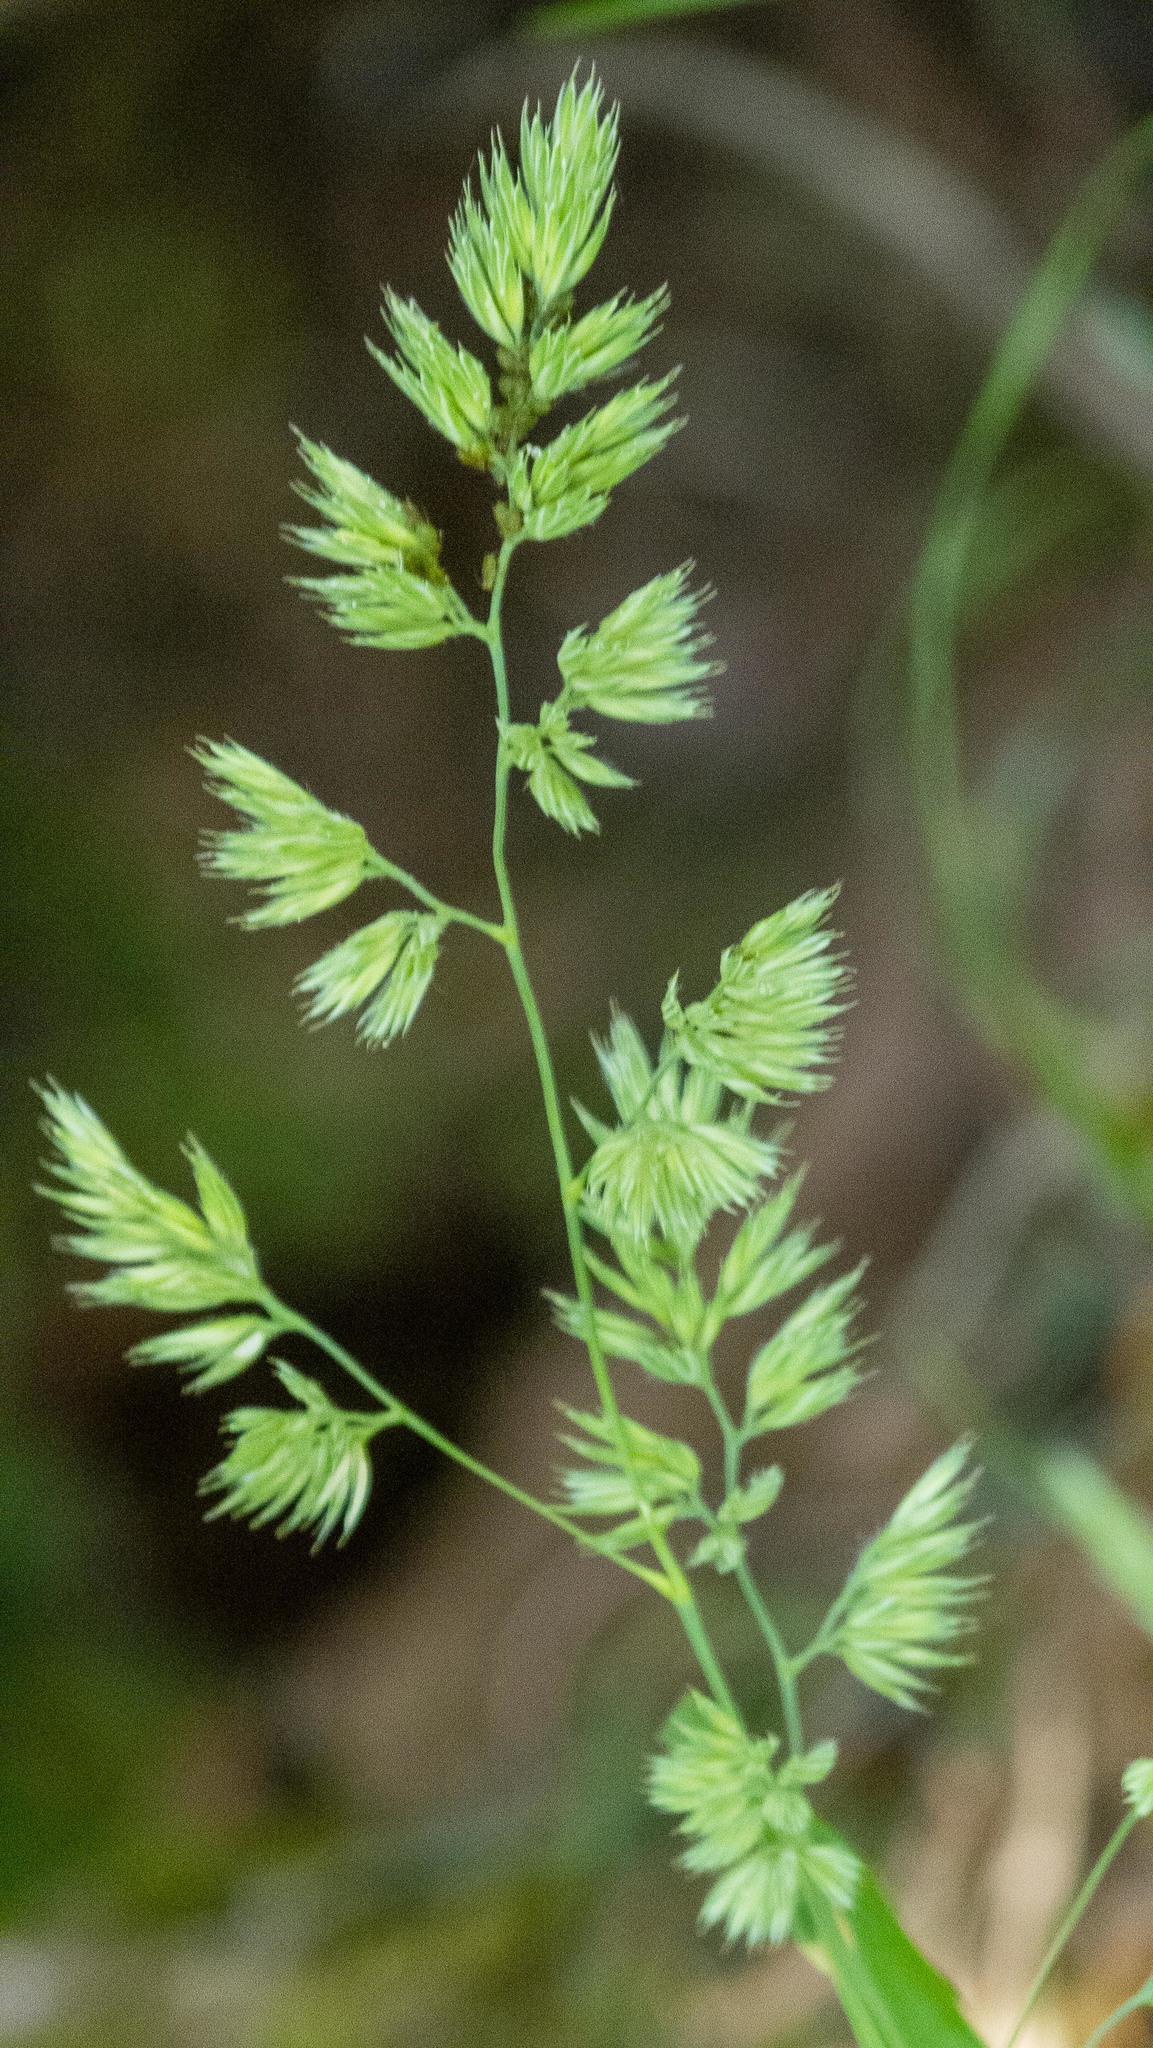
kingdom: Plantae
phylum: Tracheophyta
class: Liliopsida
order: Poales
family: Poaceae
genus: Dactylis
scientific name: Dactylis glomerata
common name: Orchardgrass
